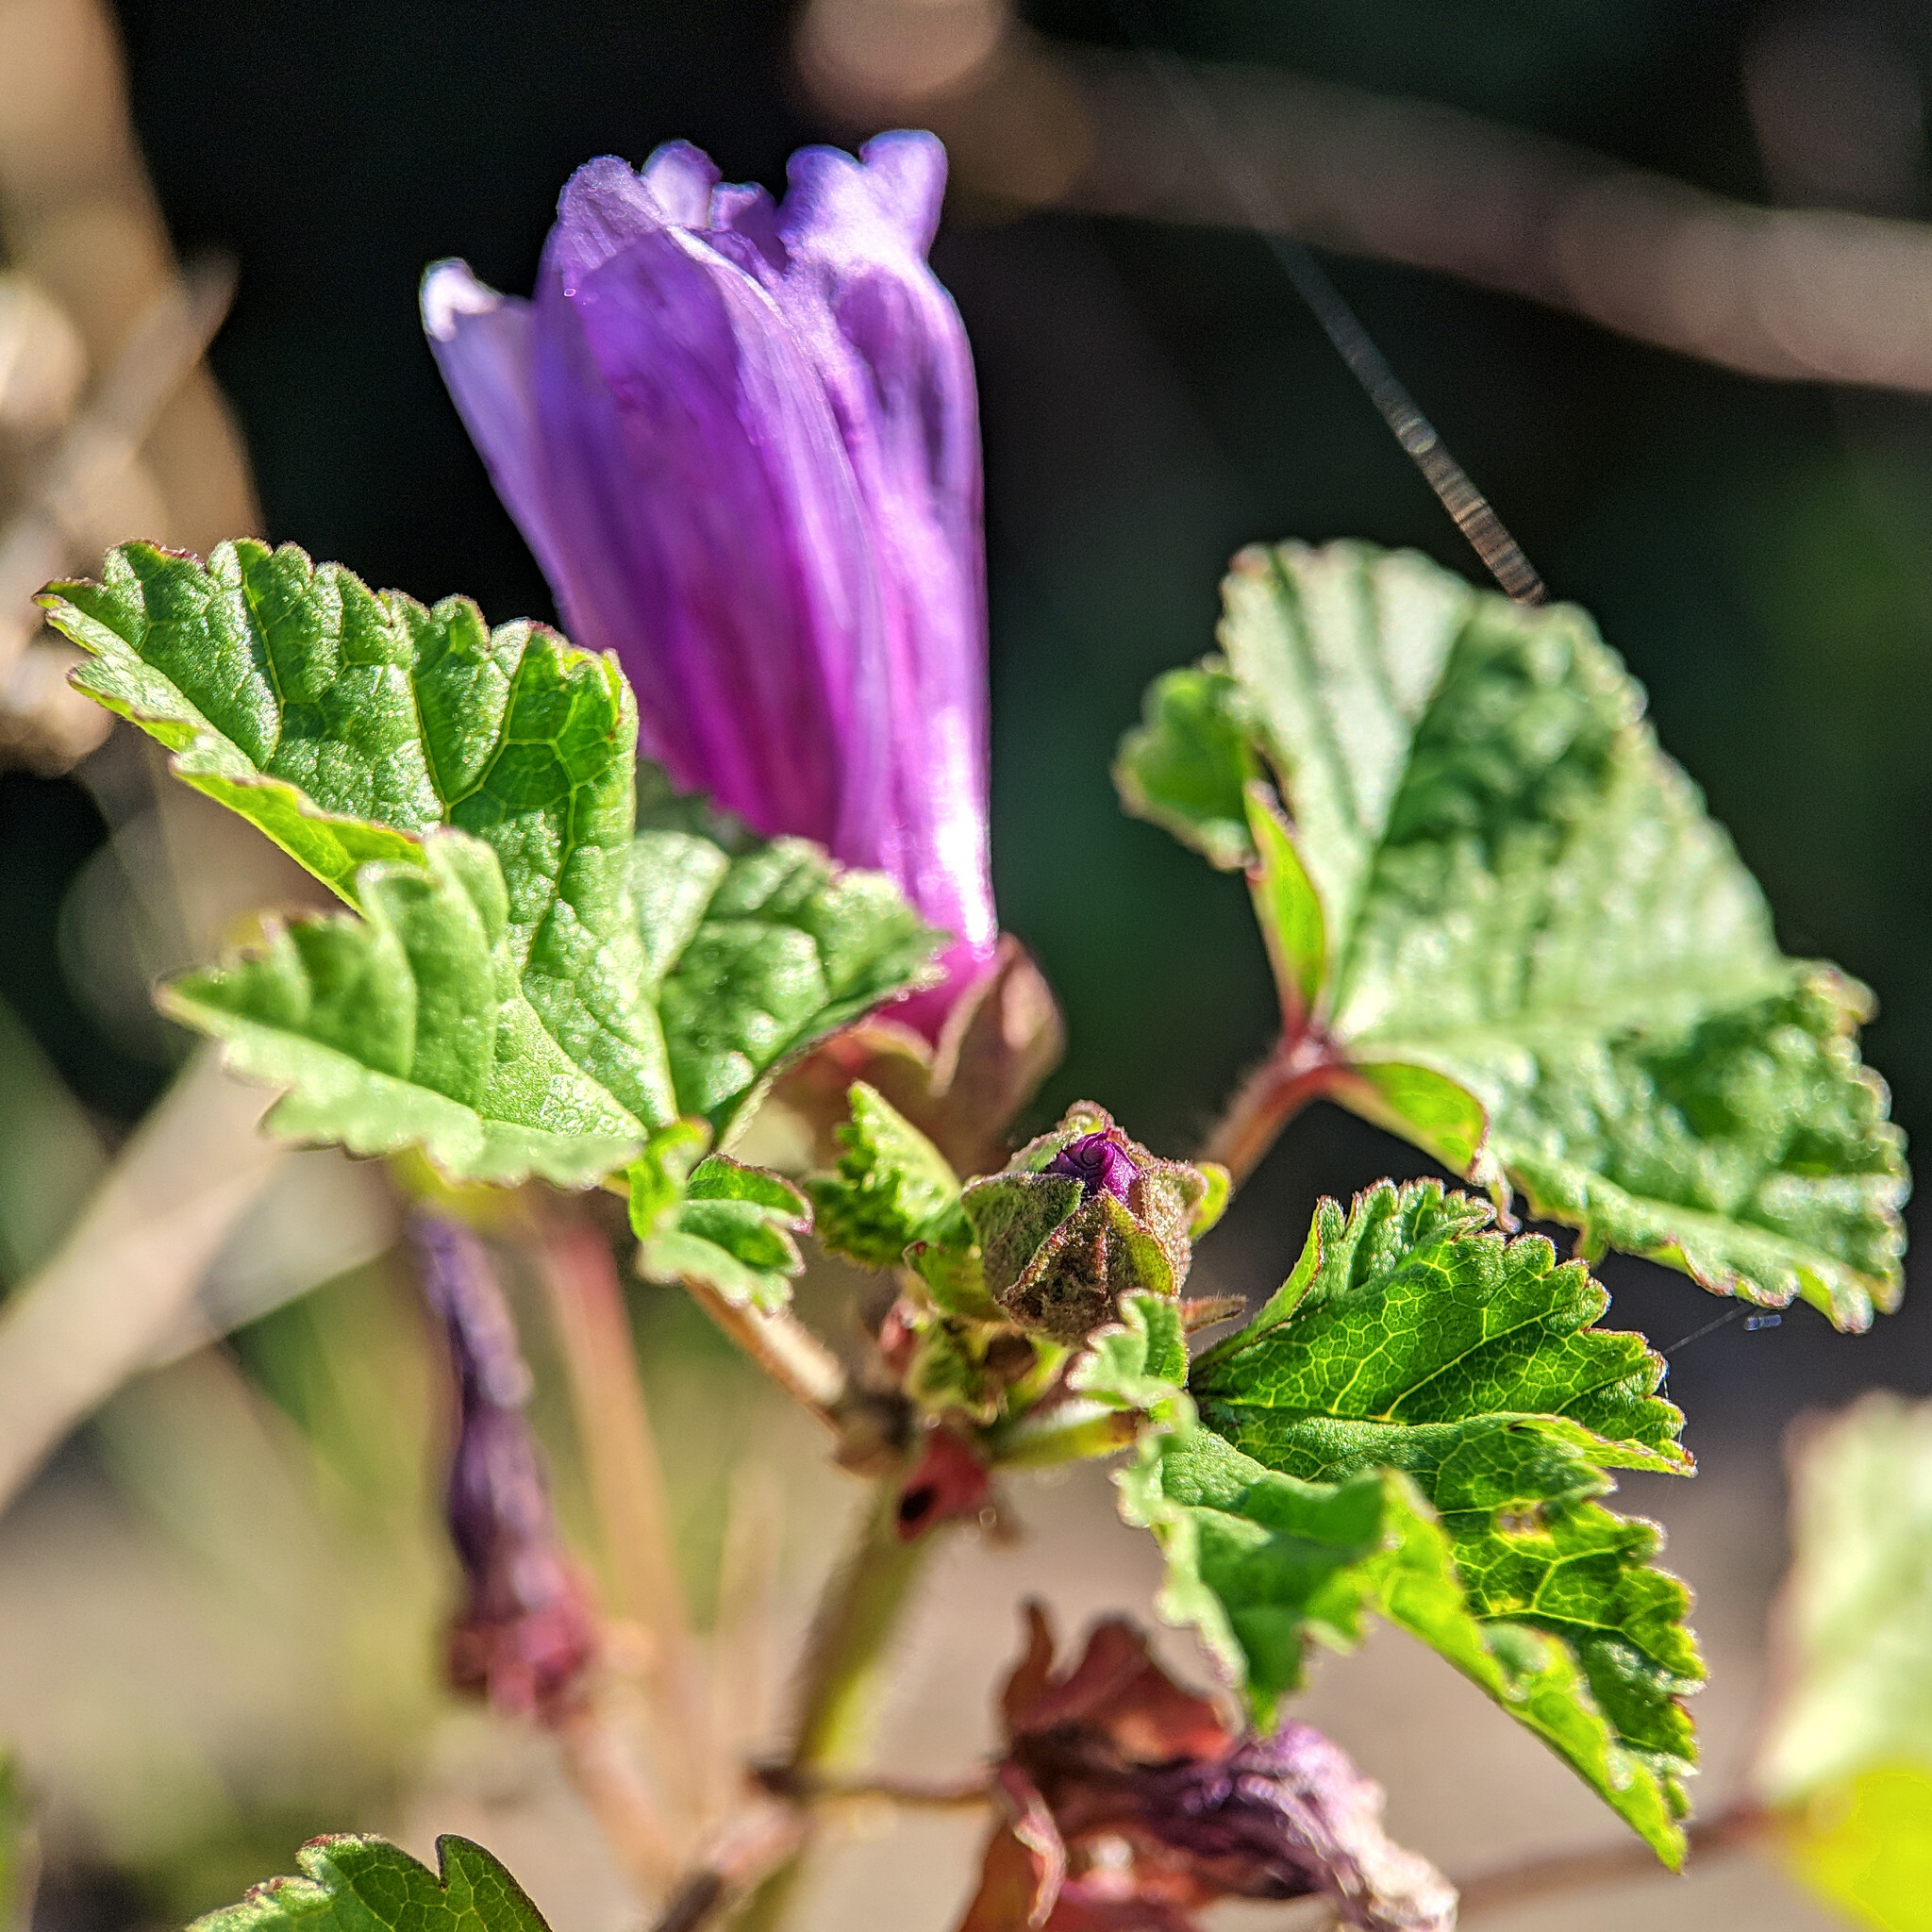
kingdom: Plantae
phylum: Tracheophyta
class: Magnoliopsida
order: Malvales
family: Malvaceae
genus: Malva
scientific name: Malva sylvestris
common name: Common mallow
